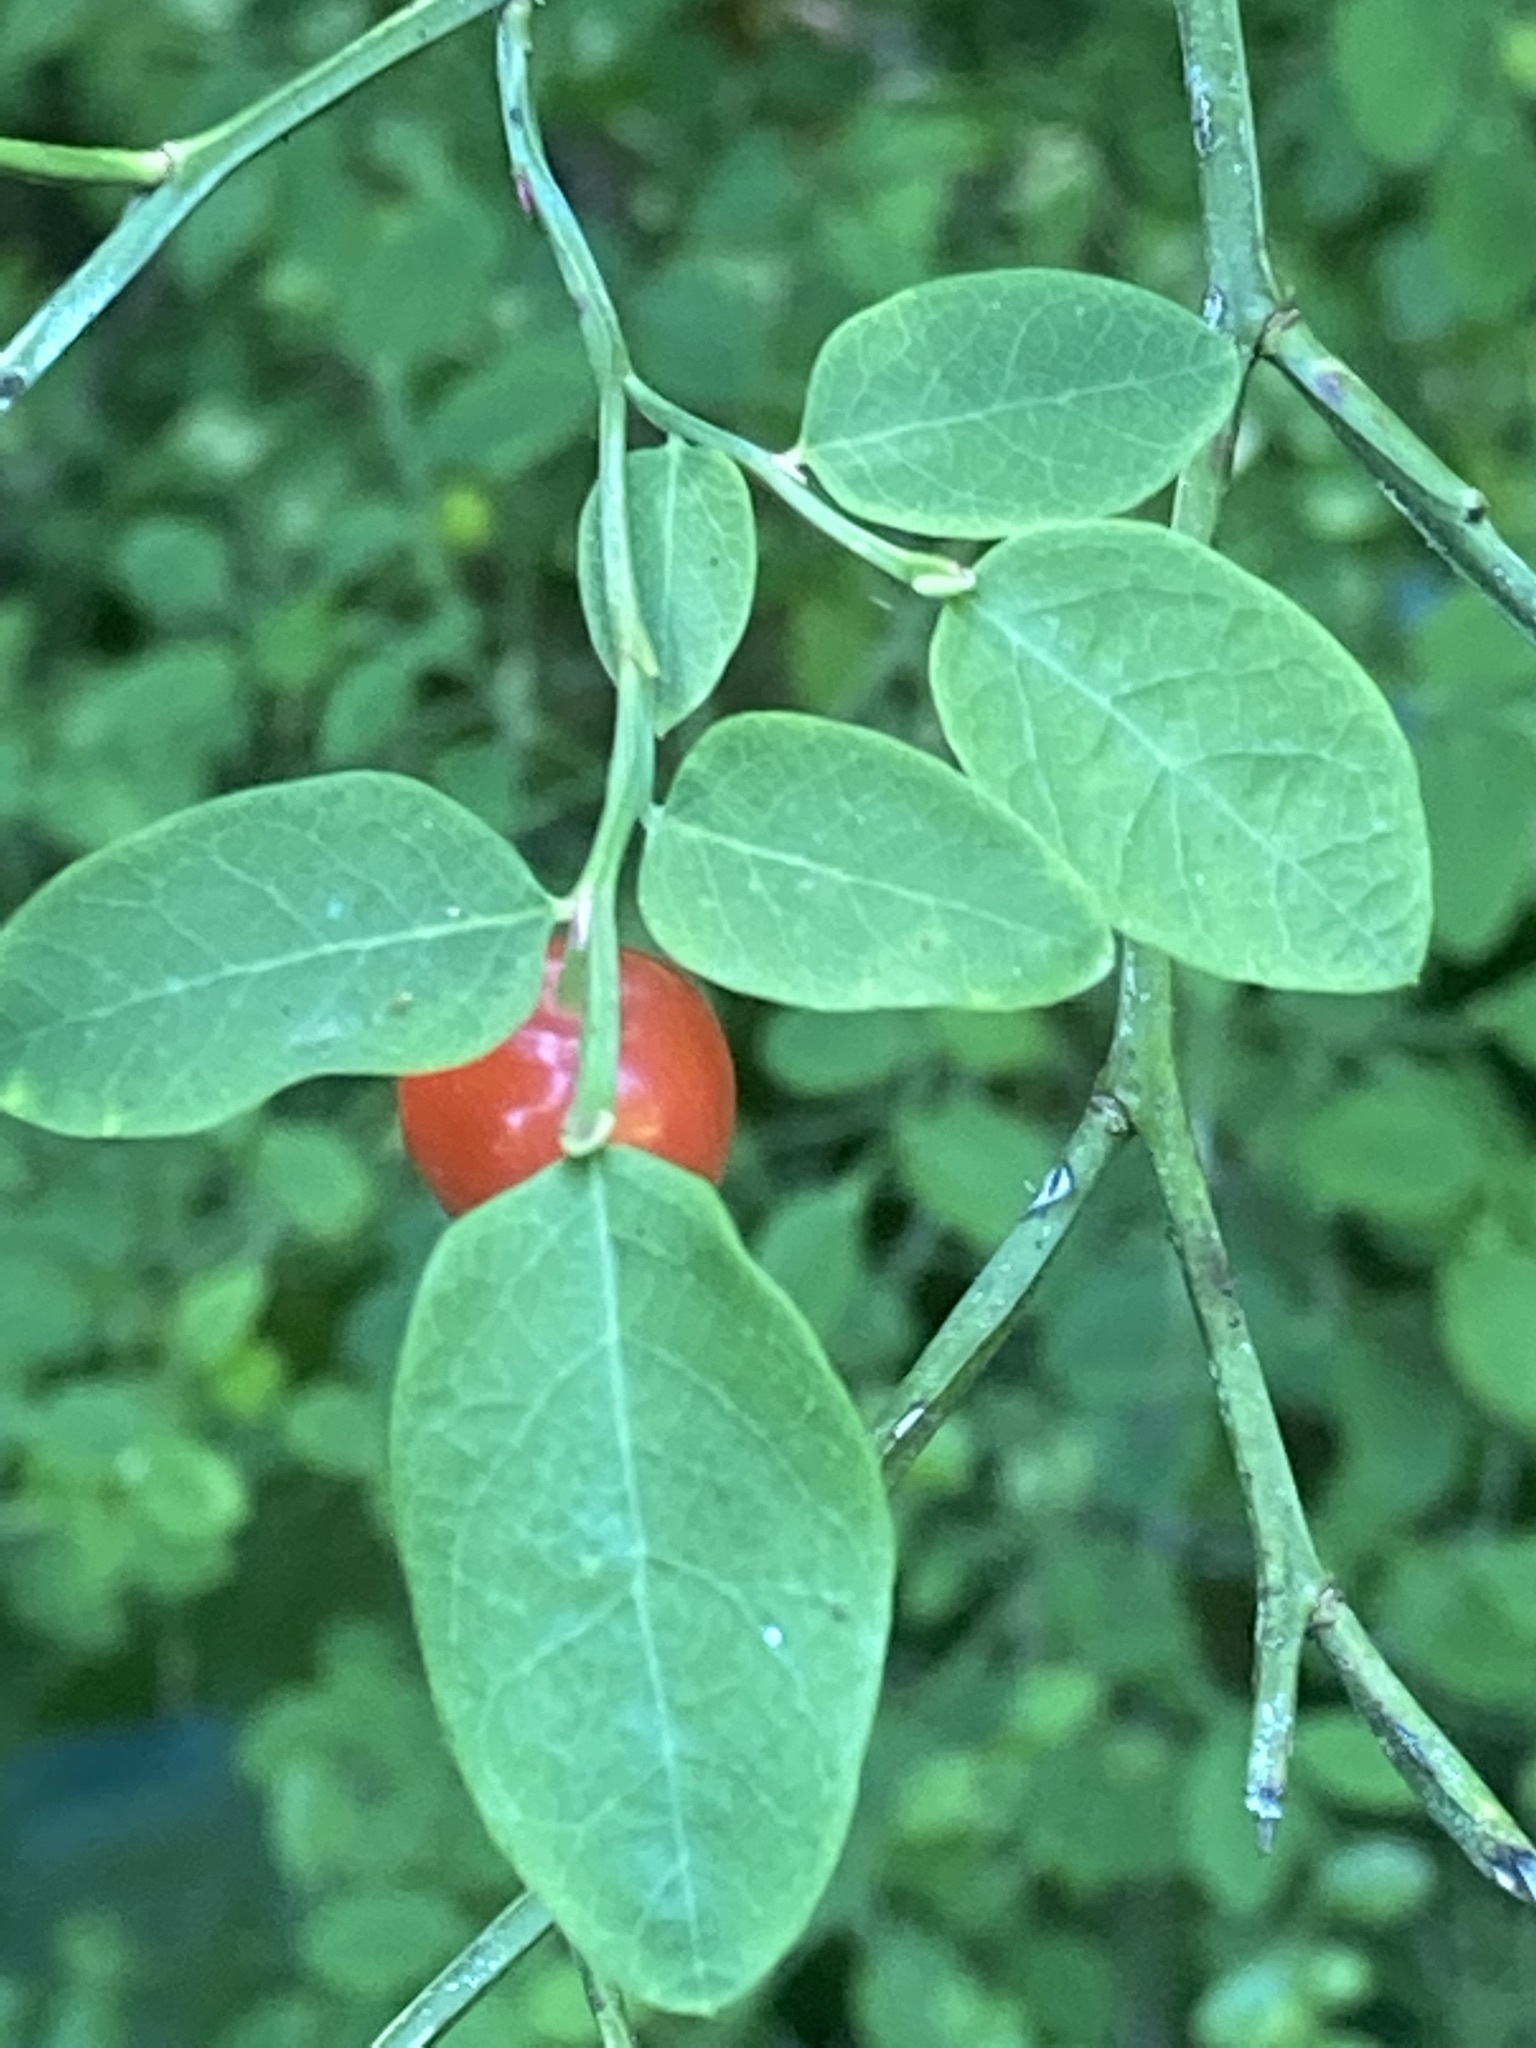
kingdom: Plantae
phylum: Tracheophyta
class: Magnoliopsida
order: Ericales
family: Ericaceae
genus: Vaccinium
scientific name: Vaccinium parvifolium
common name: Red-huckleberry
